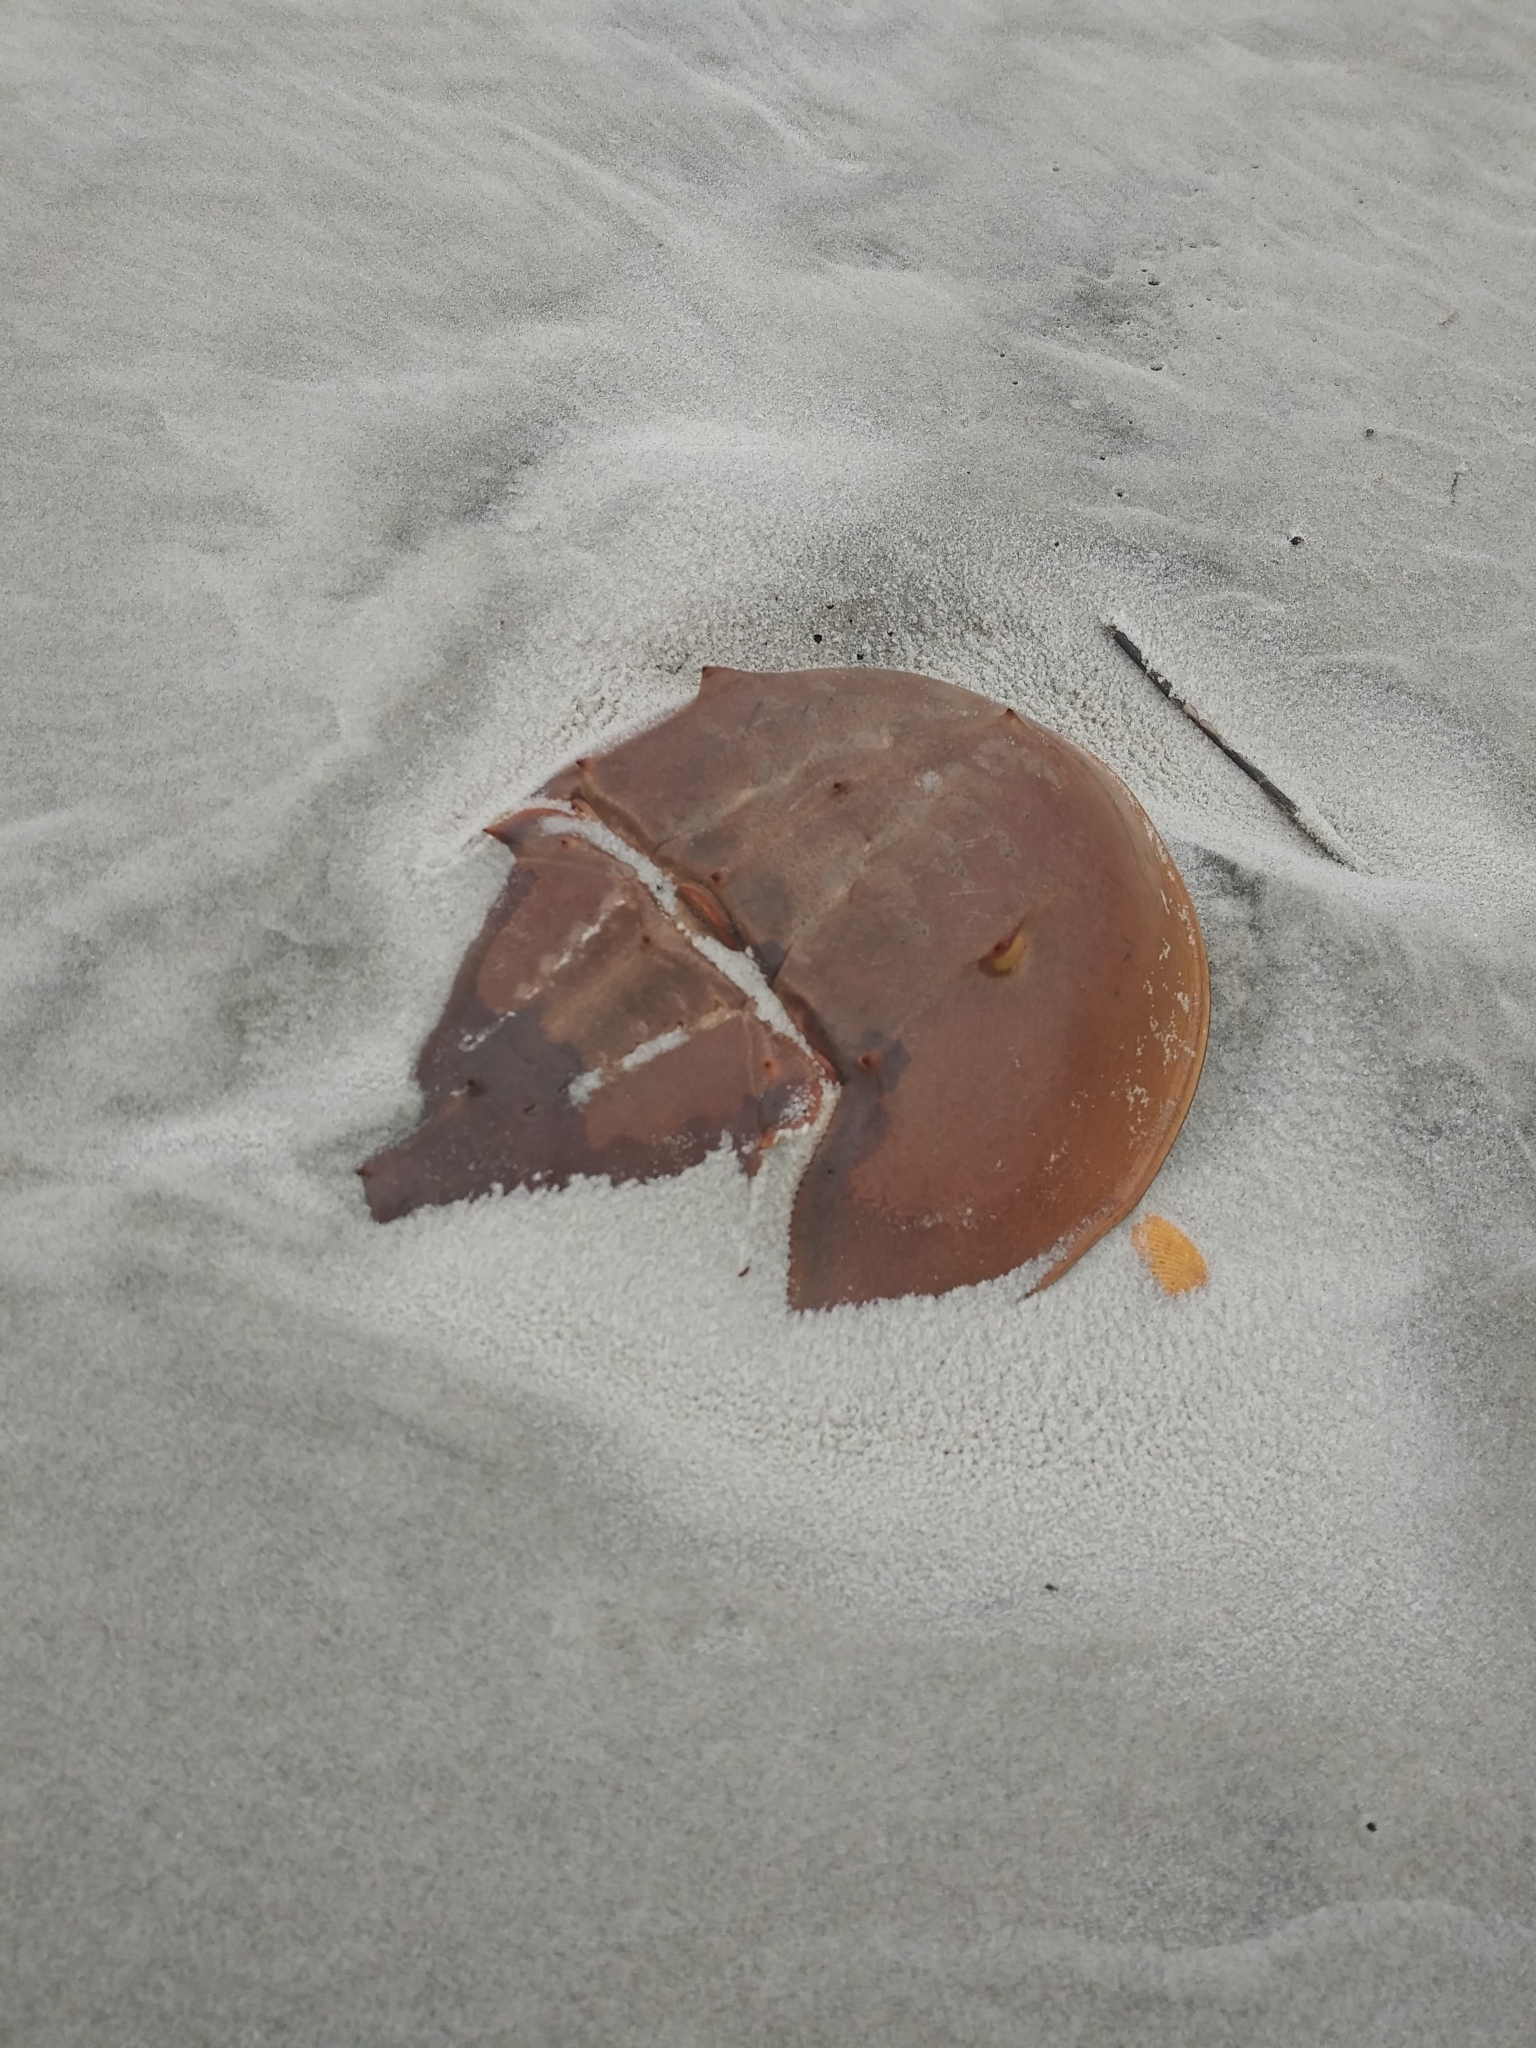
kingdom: Animalia
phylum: Arthropoda
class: Merostomata
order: Xiphosurida
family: Limulidae
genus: Limulus
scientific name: Limulus polyphemus
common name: Horseshoe crab
